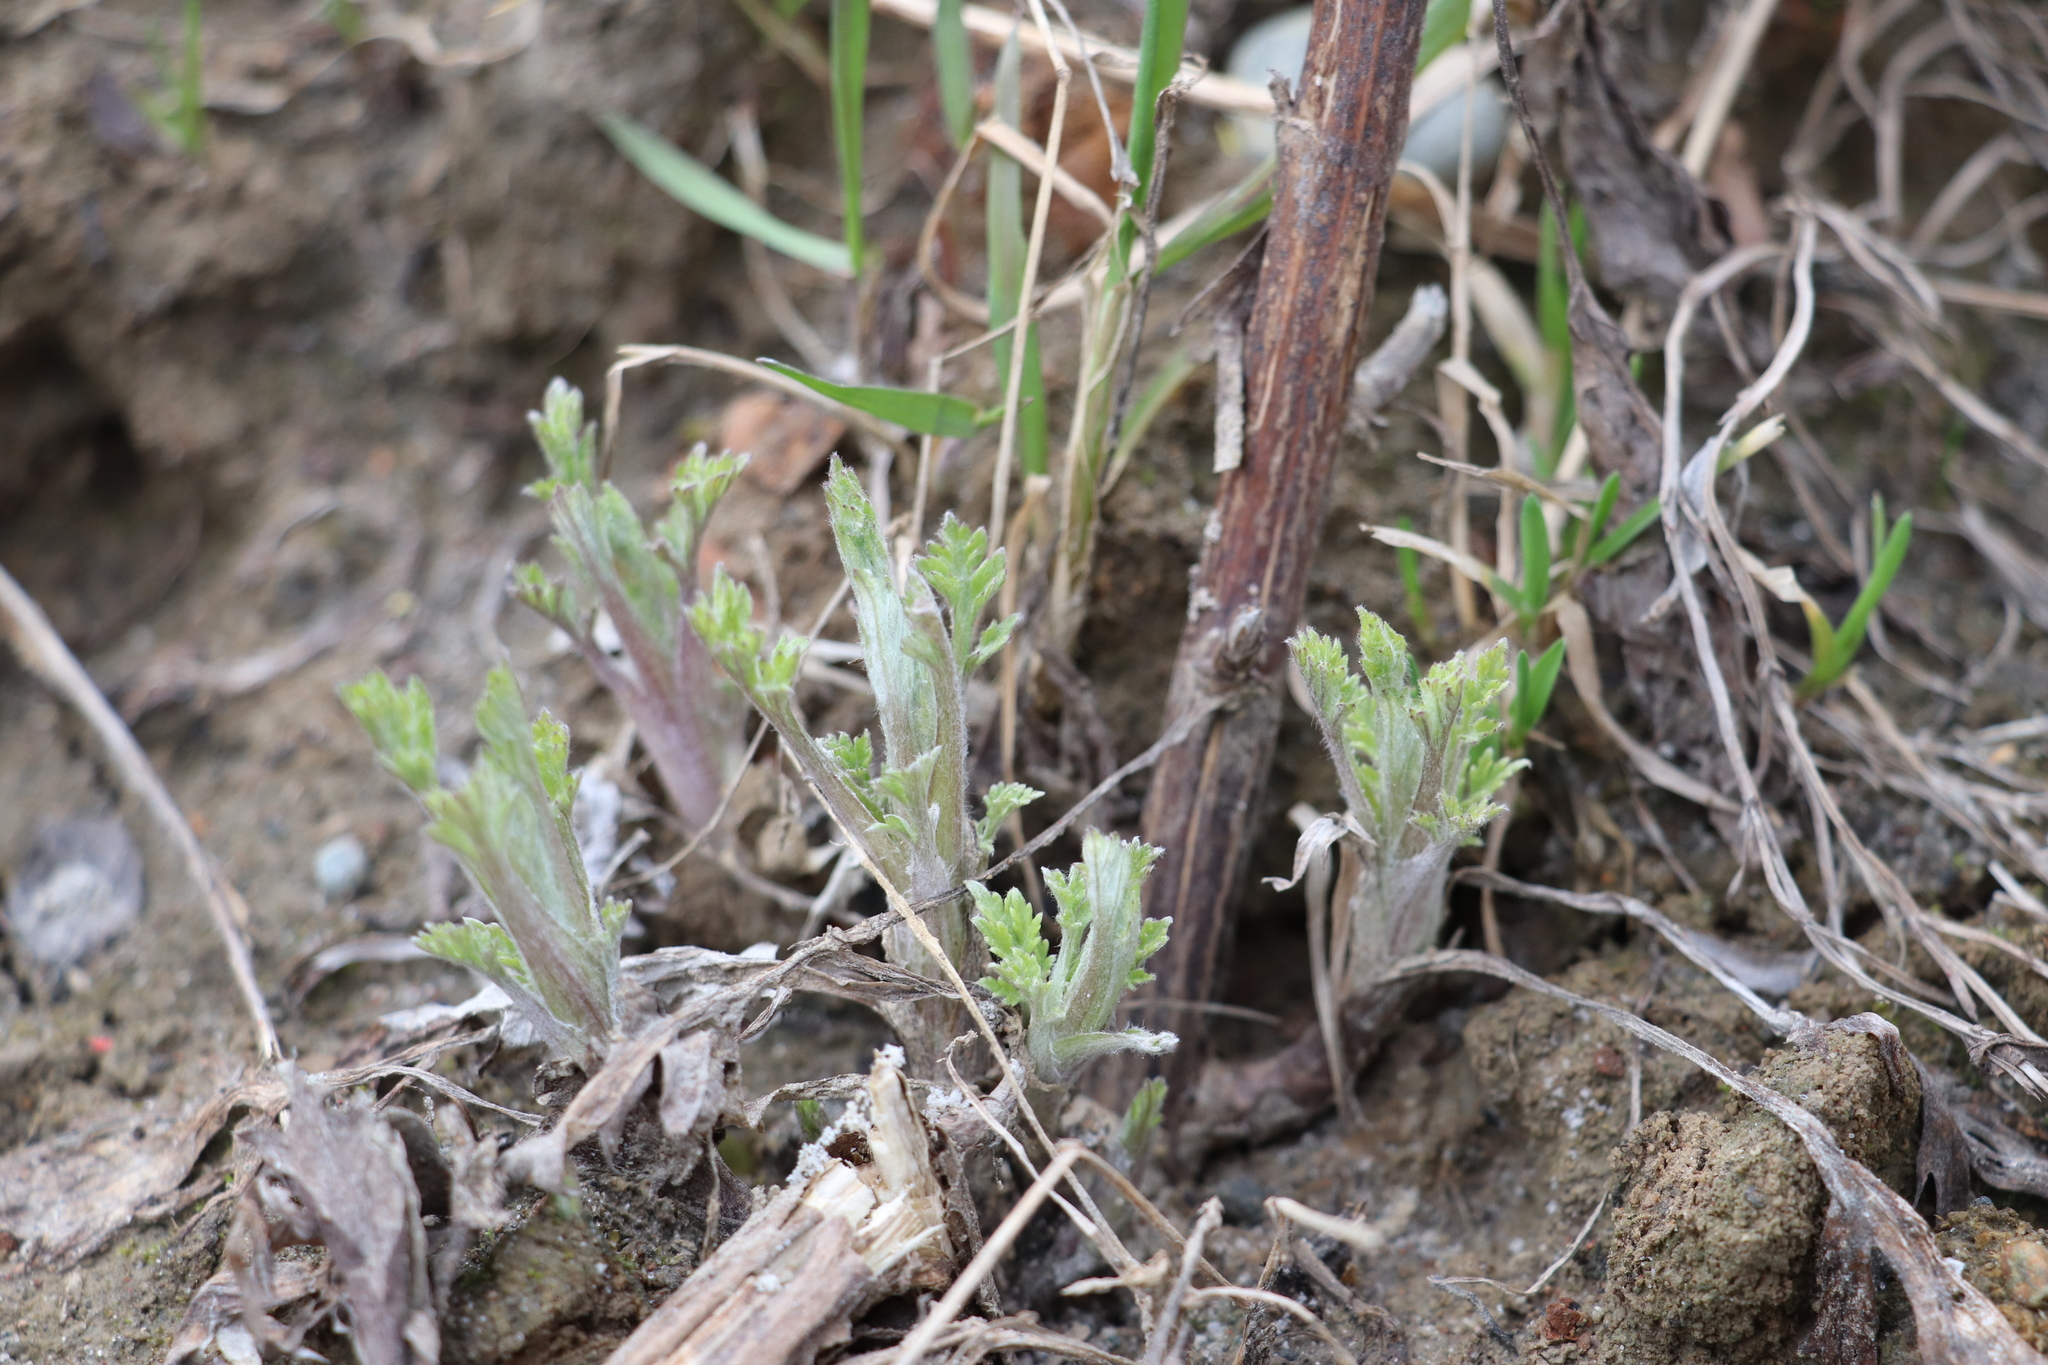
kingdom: Plantae
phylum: Tracheophyta
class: Magnoliopsida
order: Asterales
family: Asteraceae
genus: Artemisia
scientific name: Artemisia vulgaris
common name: Mugwort
